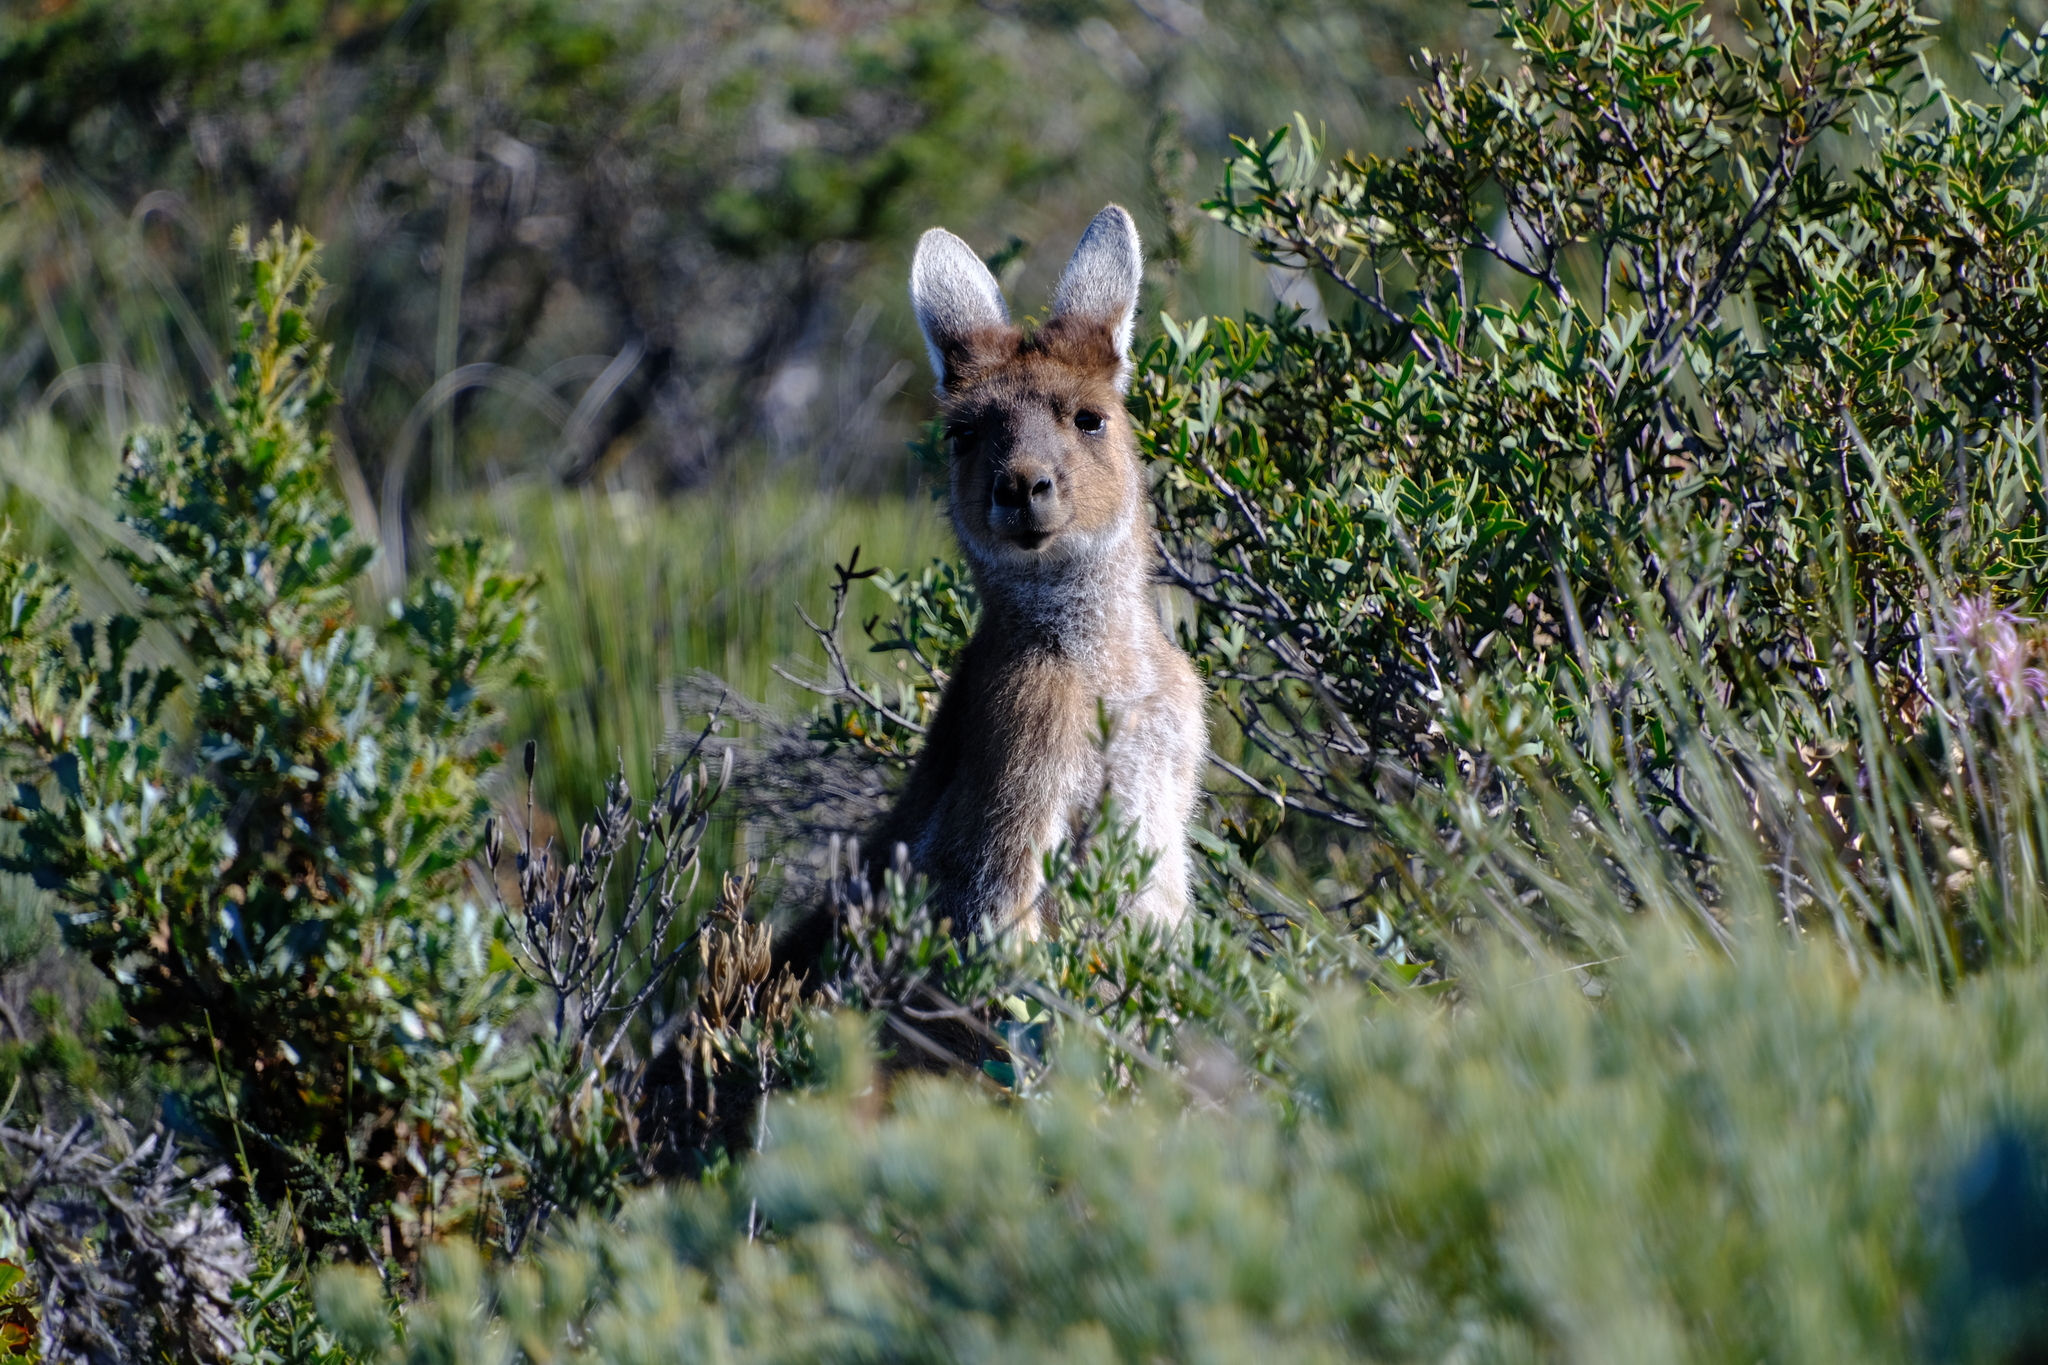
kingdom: Animalia
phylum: Chordata
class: Mammalia
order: Diprotodontia
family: Macropodidae
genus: Macropus
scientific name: Macropus fuliginosus
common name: Western grey kangaroo
